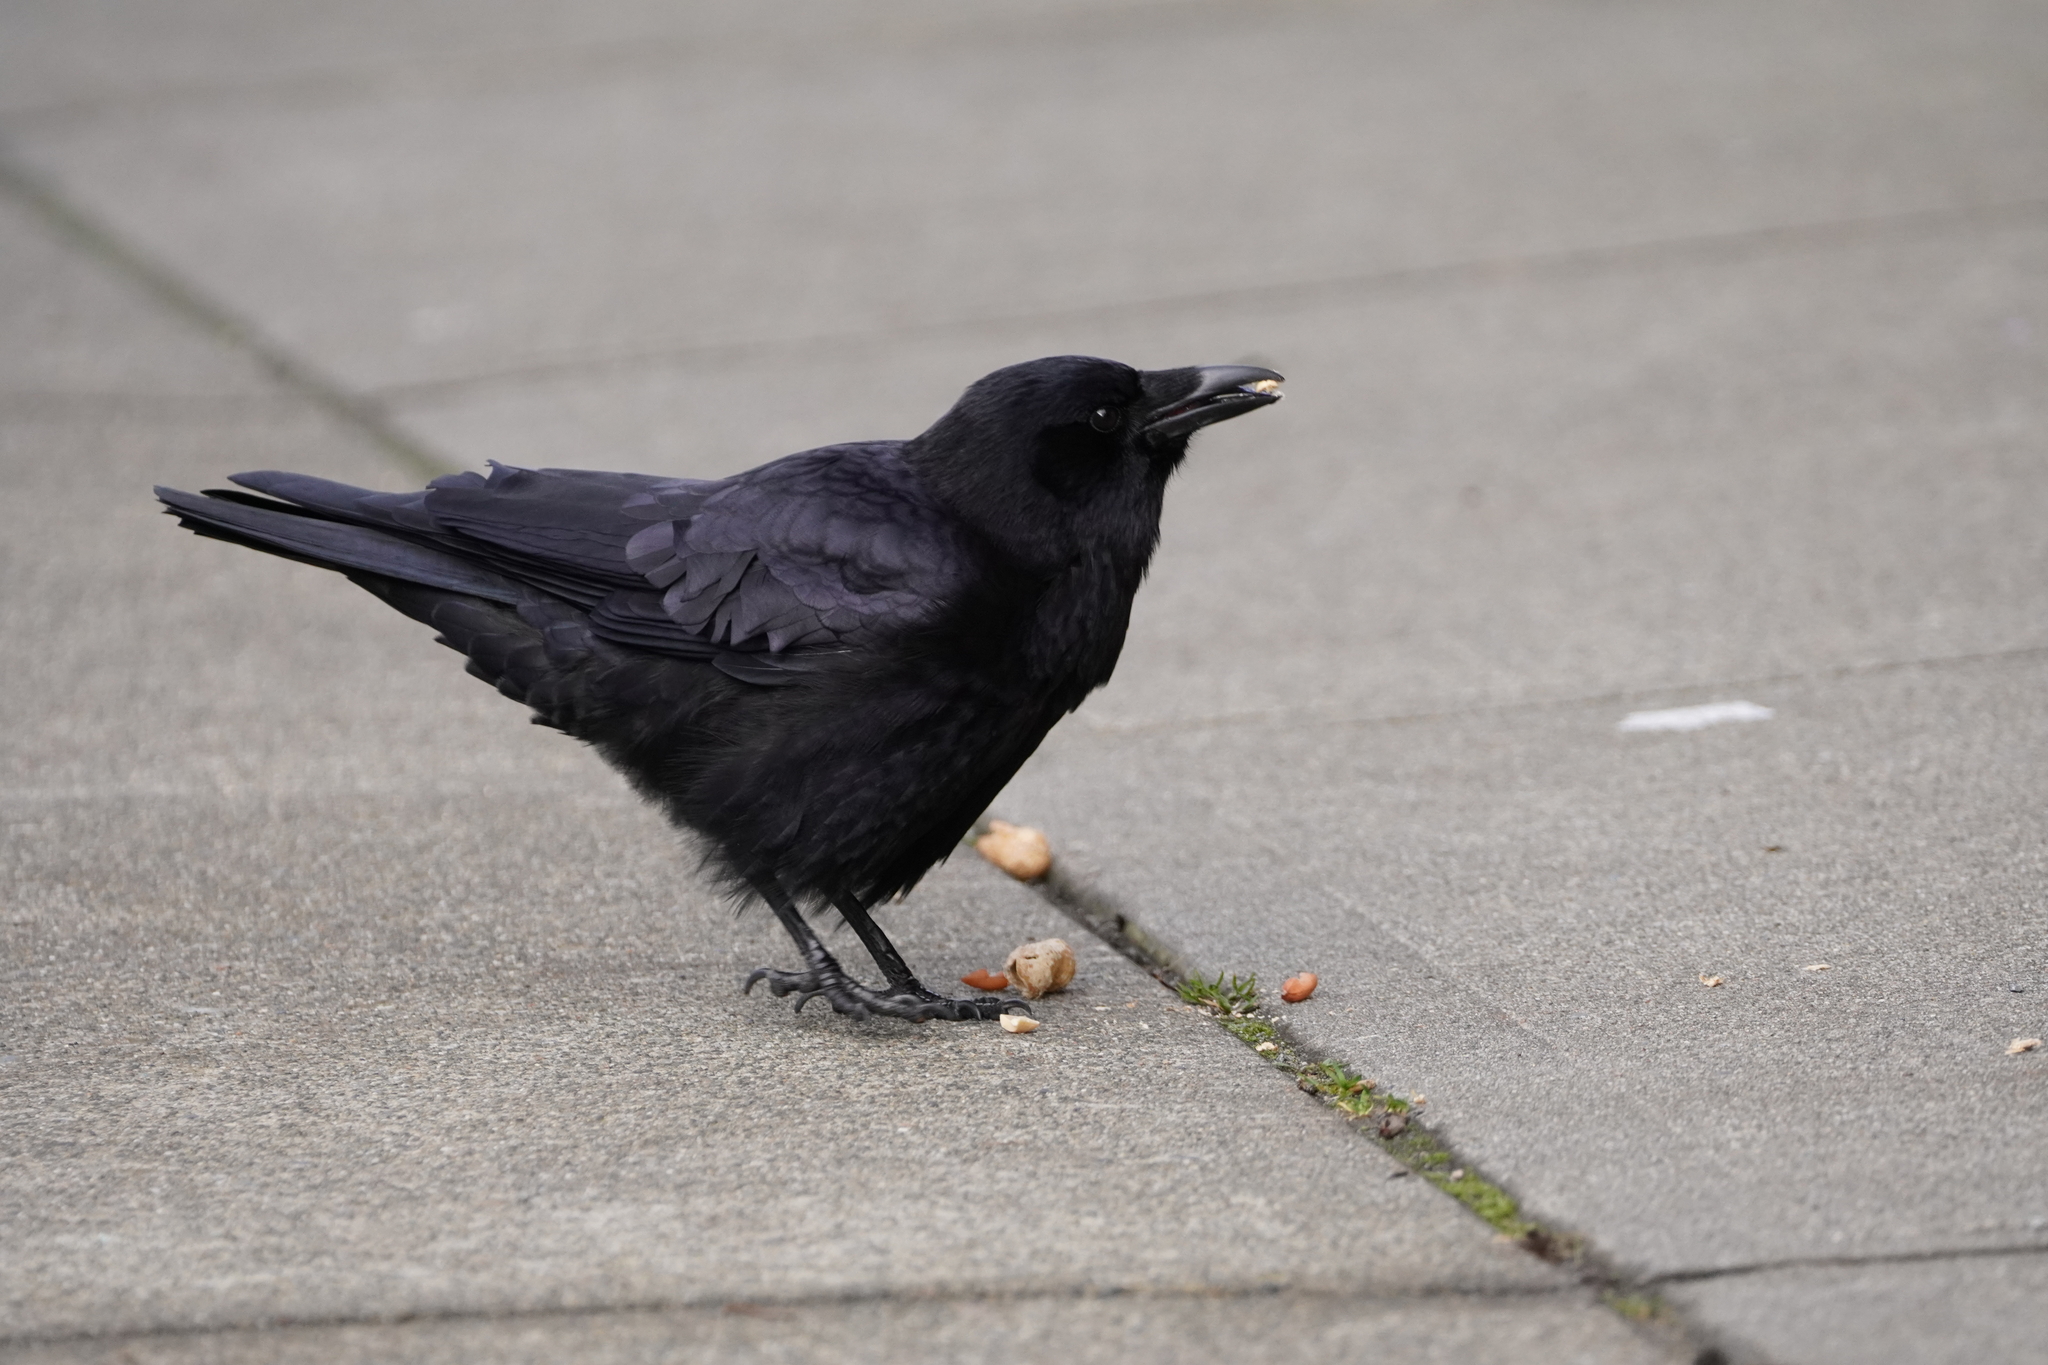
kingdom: Animalia
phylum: Chordata
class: Aves
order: Passeriformes
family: Corvidae
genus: Corvus
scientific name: Corvus brachyrhynchos
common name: American crow
